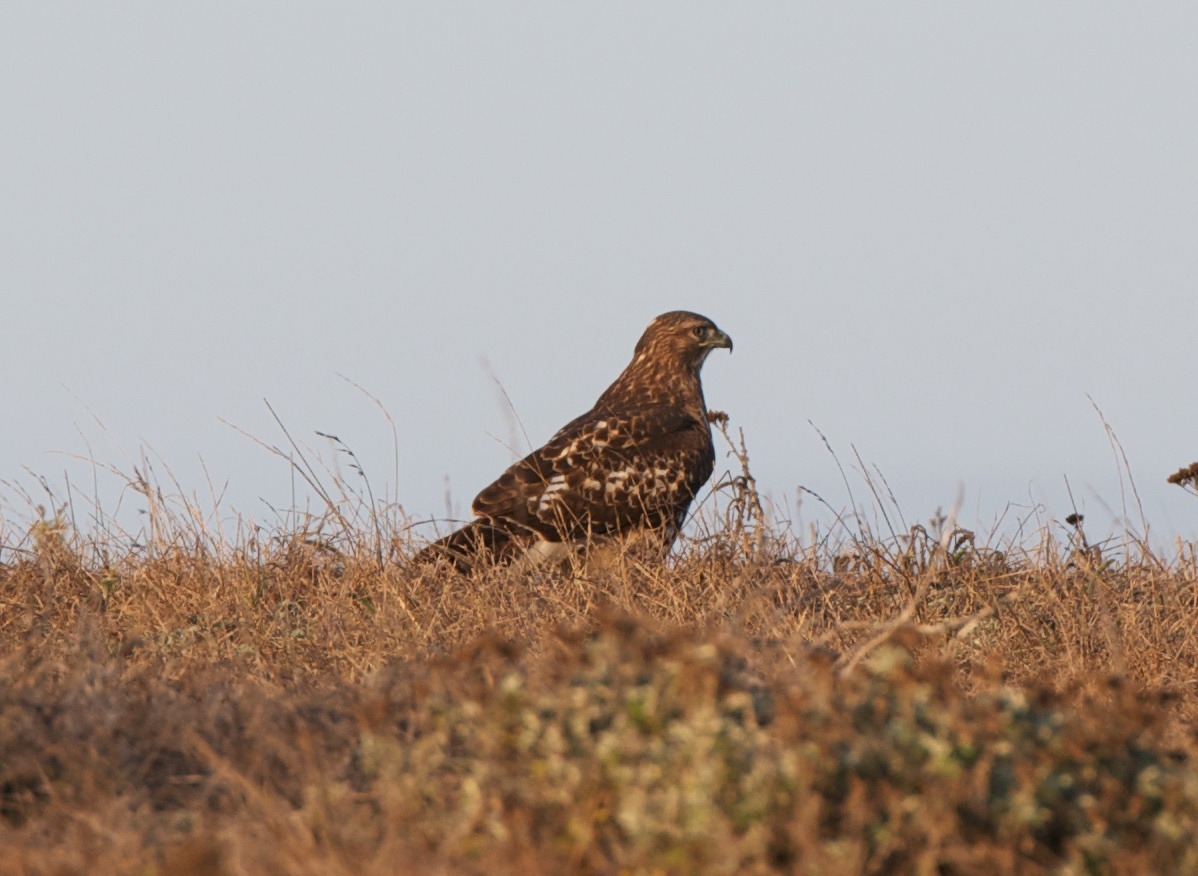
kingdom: Animalia
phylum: Chordata
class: Aves
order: Accipitriformes
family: Accipitridae
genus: Buteo
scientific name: Buteo jamaicensis
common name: Red-tailed hawk
